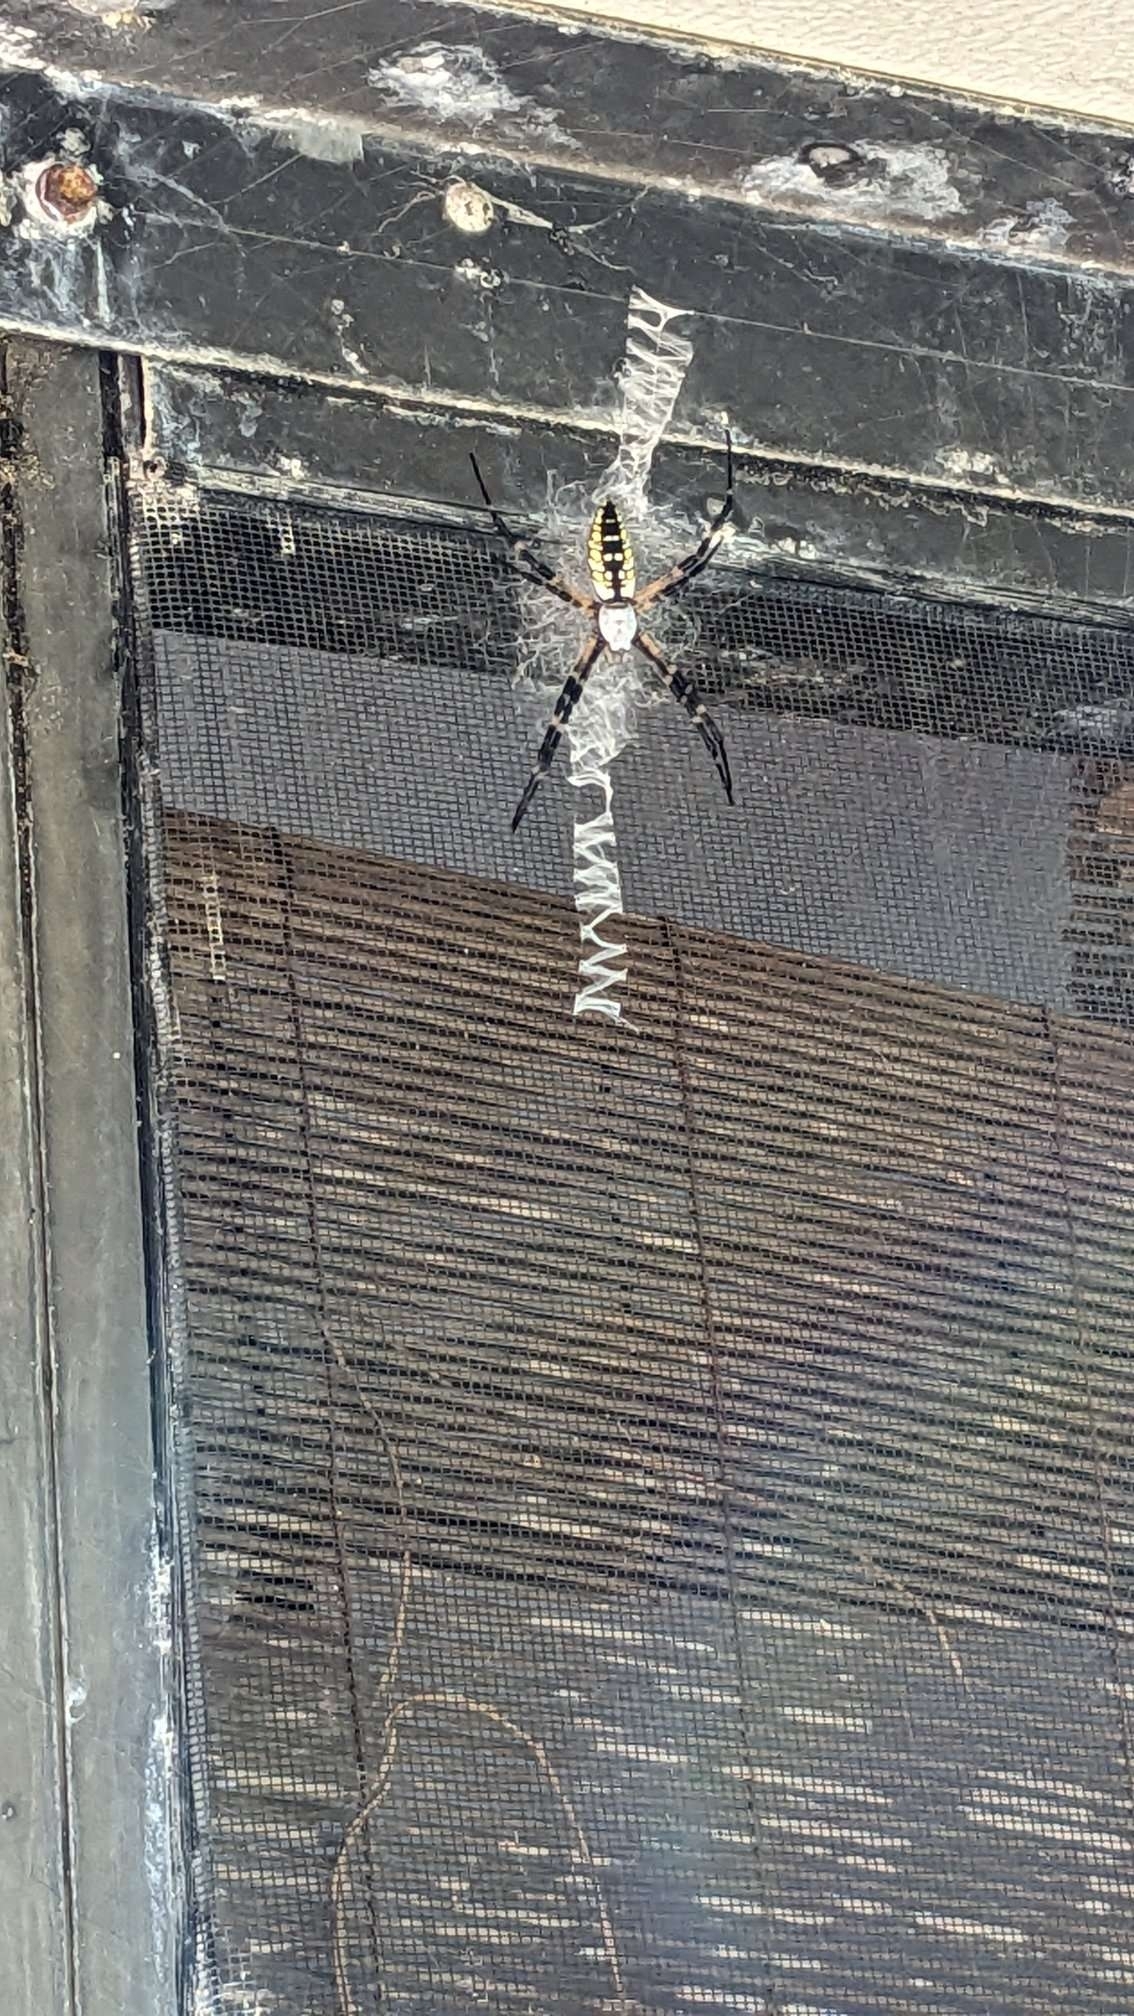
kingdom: Animalia
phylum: Arthropoda
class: Arachnida
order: Araneae
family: Araneidae
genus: Argiope
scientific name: Argiope aurantia
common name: Orb weavers
